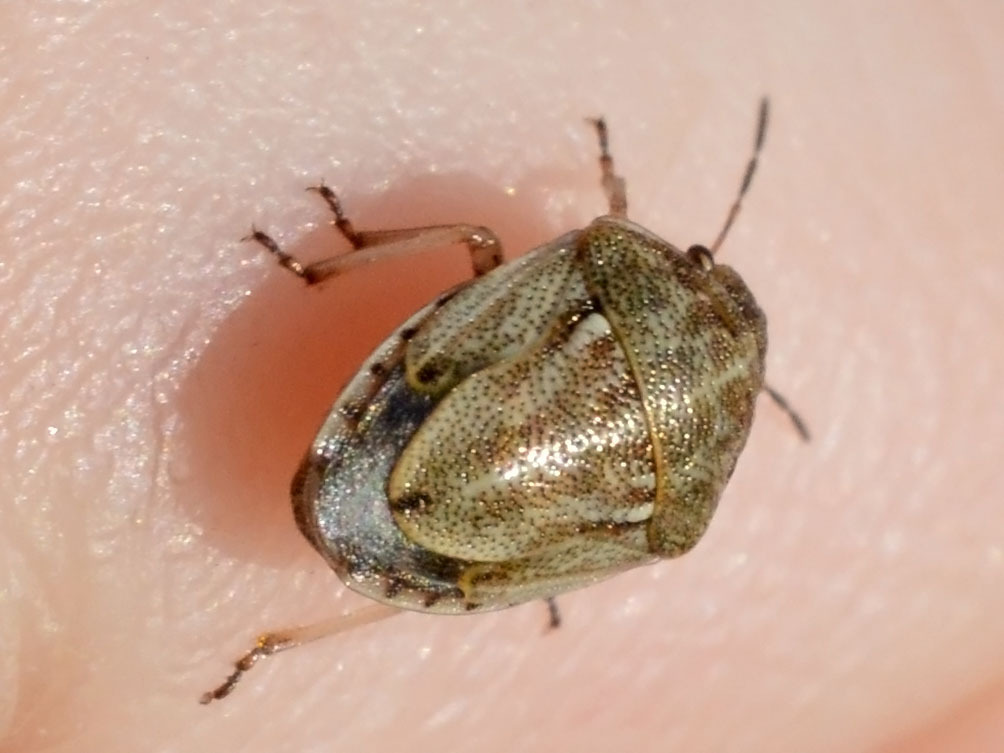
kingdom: Animalia
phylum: Arthropoda
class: Insecta
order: Hemiptera
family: Pentatomidae
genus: Neottiglossa
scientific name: Neottiglossa leporina
